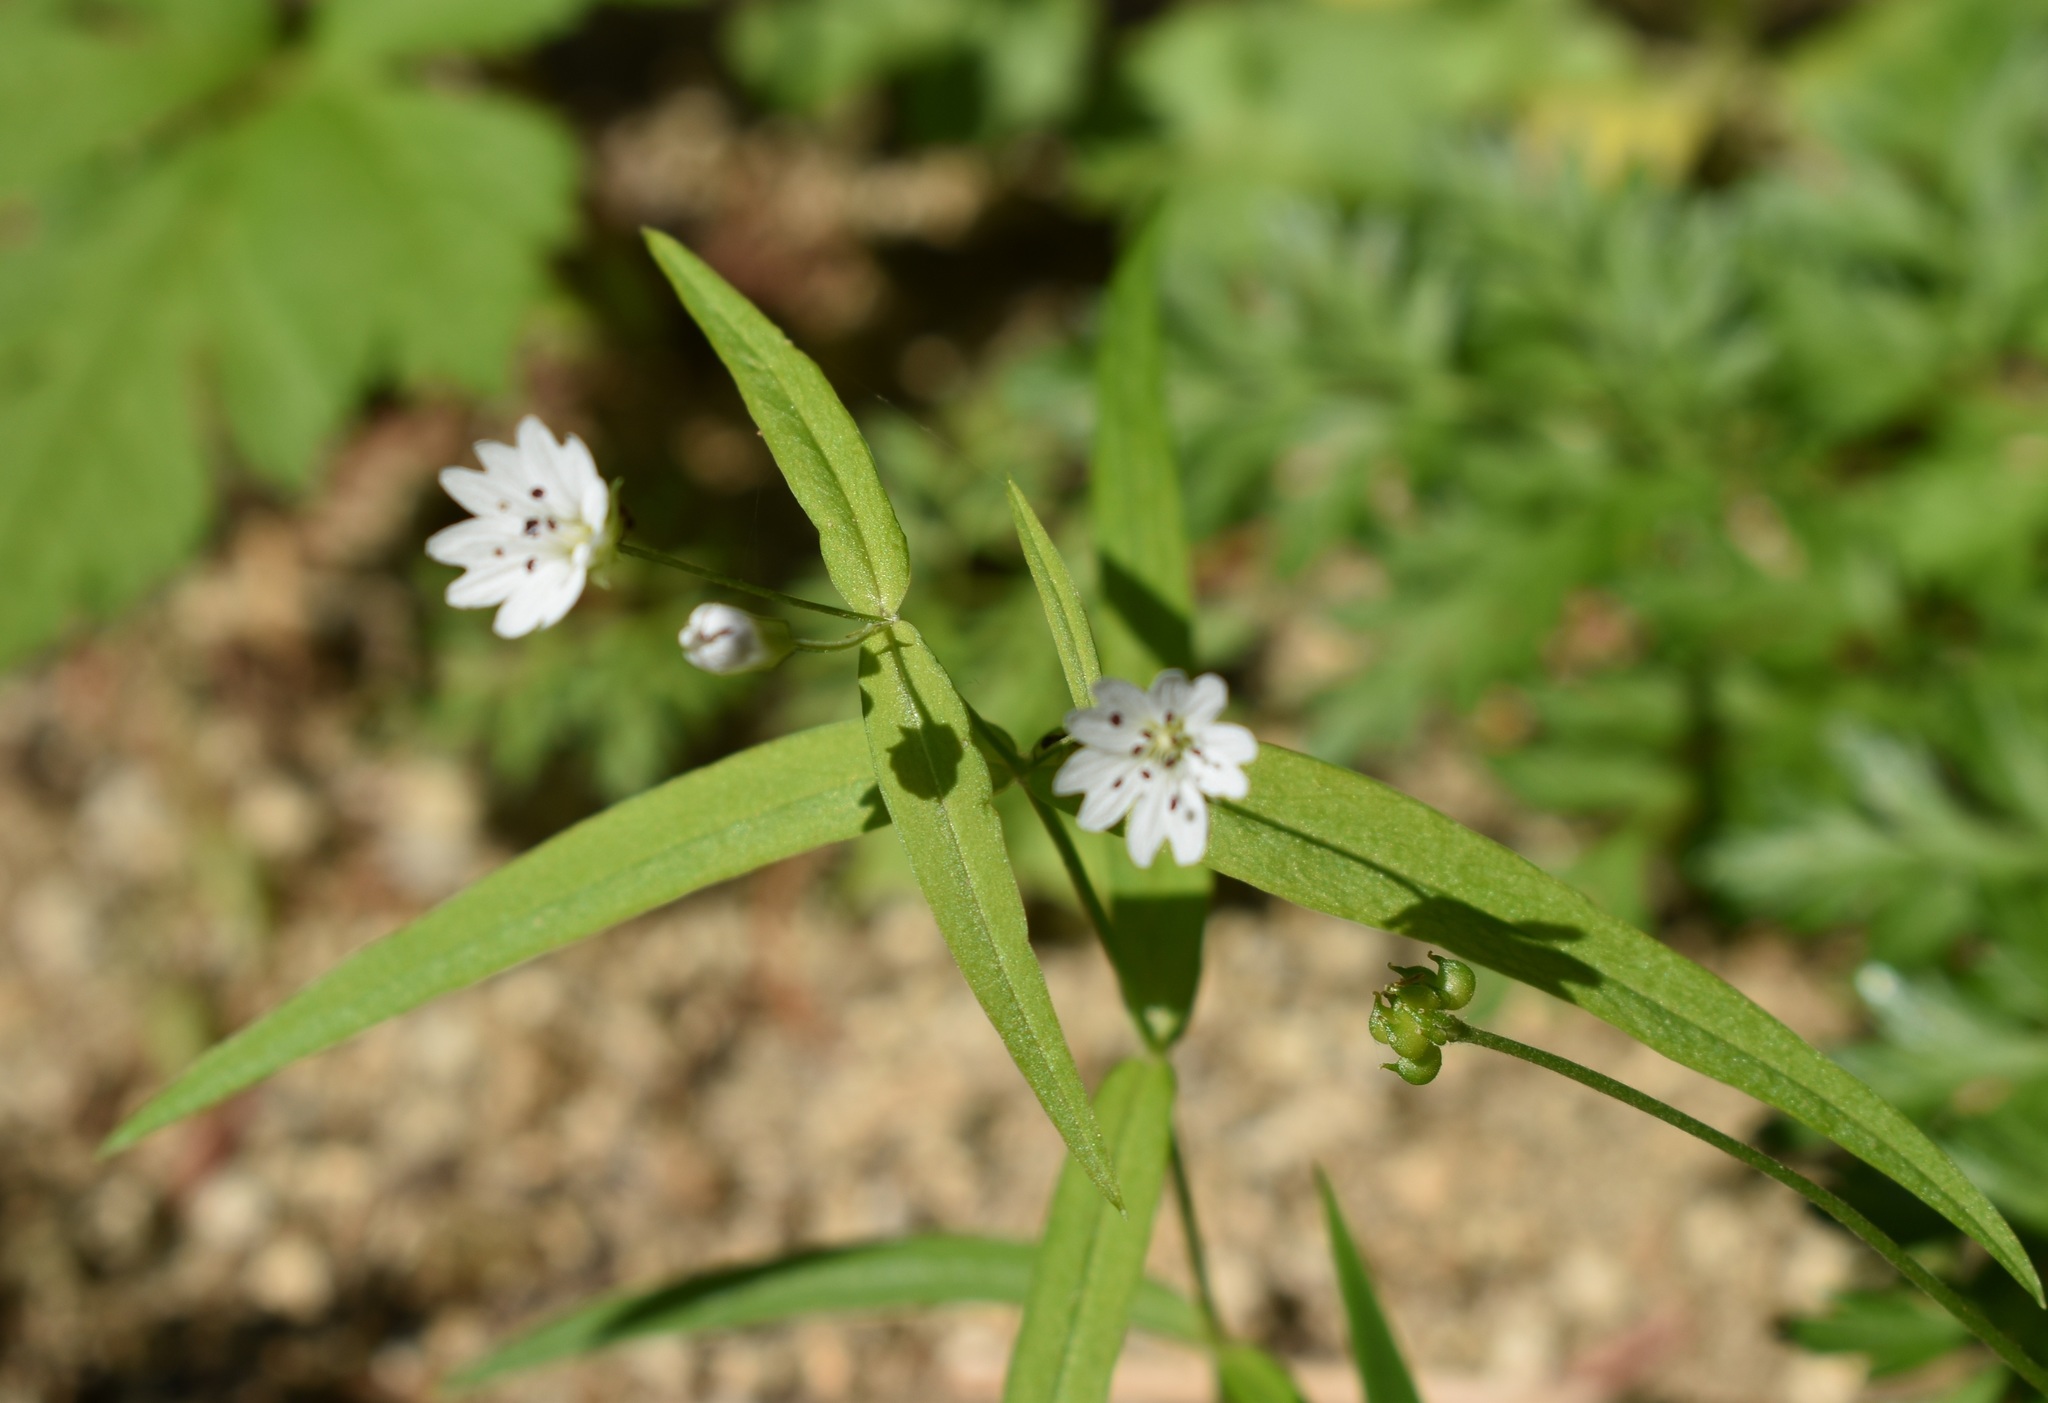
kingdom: Plantae
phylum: Tracheophyta
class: Magnoliopsida
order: Caryophyllales
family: Caryophyllaceae
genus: Pseudostellaria
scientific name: Pseudostellaria sylvatica
